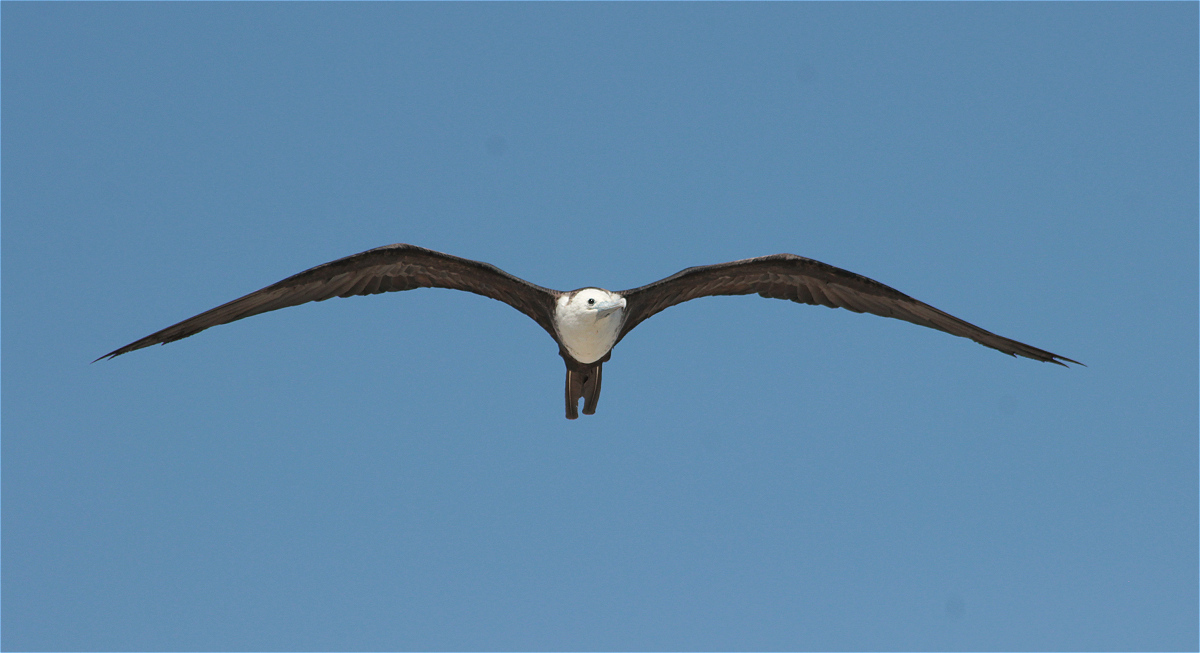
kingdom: Animalia
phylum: Chordata
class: Aves
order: Suliformes
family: Fregatidae
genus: Fregata
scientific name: Fregata magnificens
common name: Magnificent frigatebird
